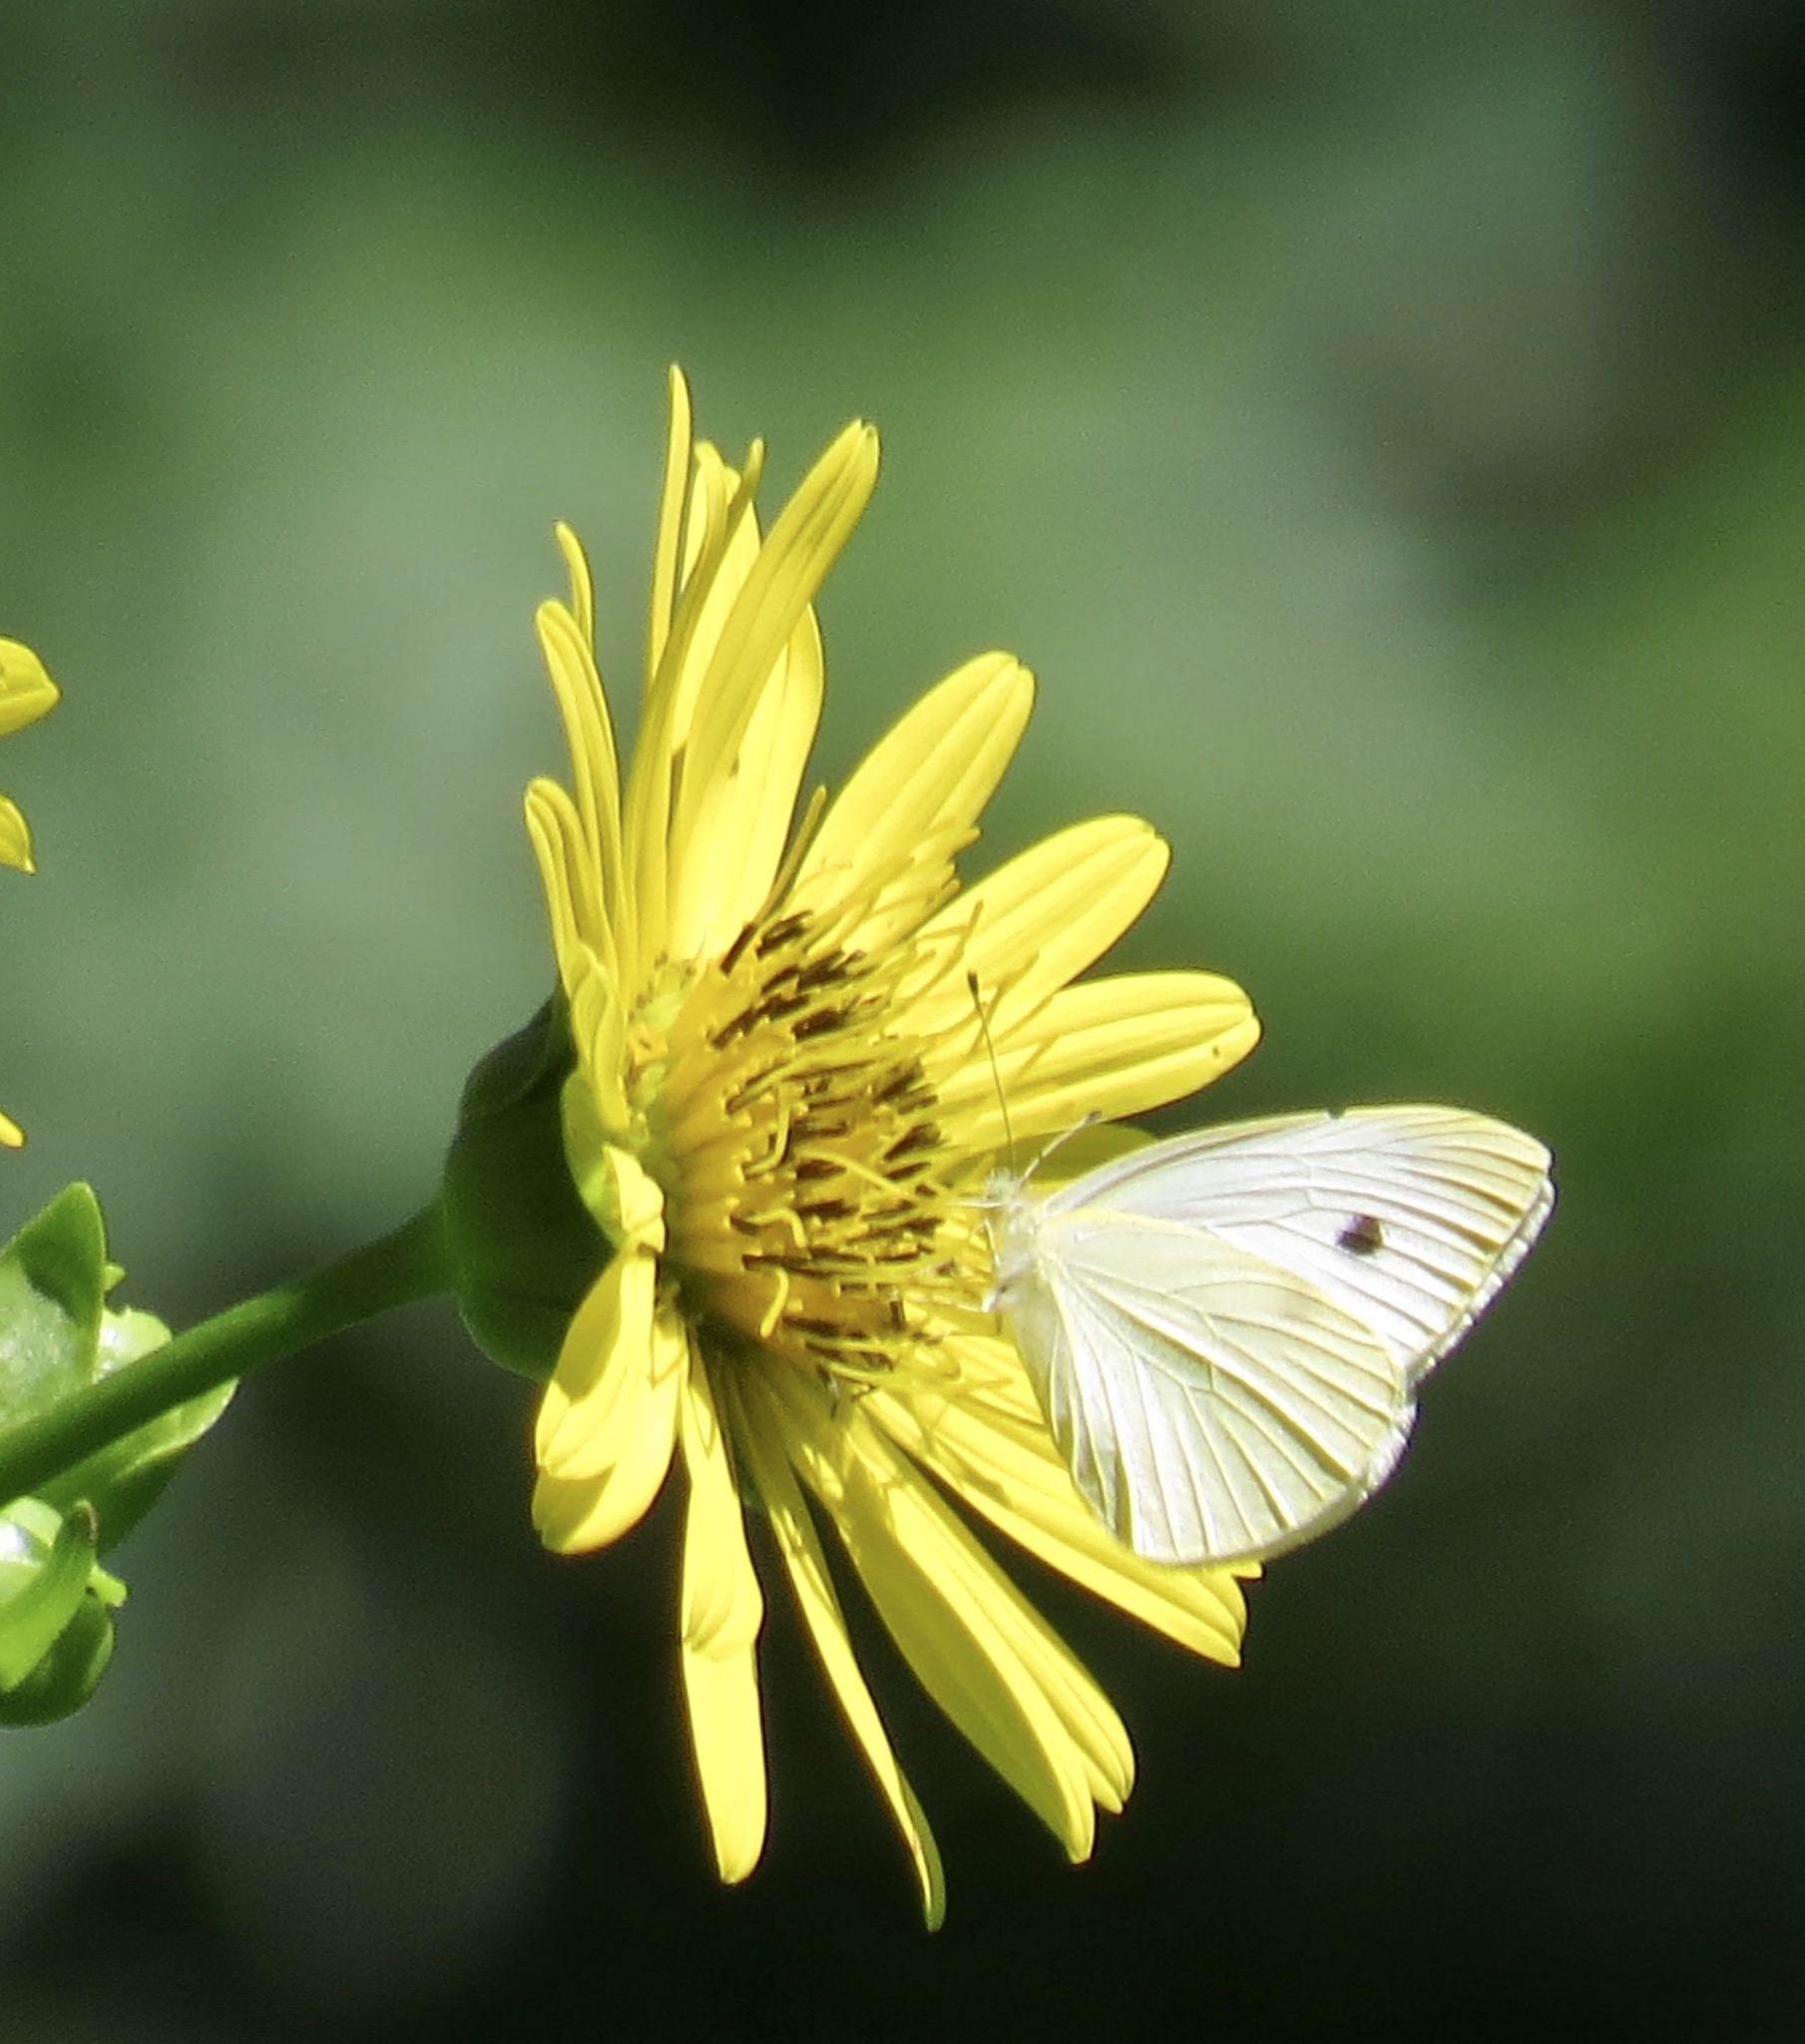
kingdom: Animalia
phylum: Arthropoda
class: Insecta
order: Lepidoptera
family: Pieridae
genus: Pieris
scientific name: Pieris rapae
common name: Small white
